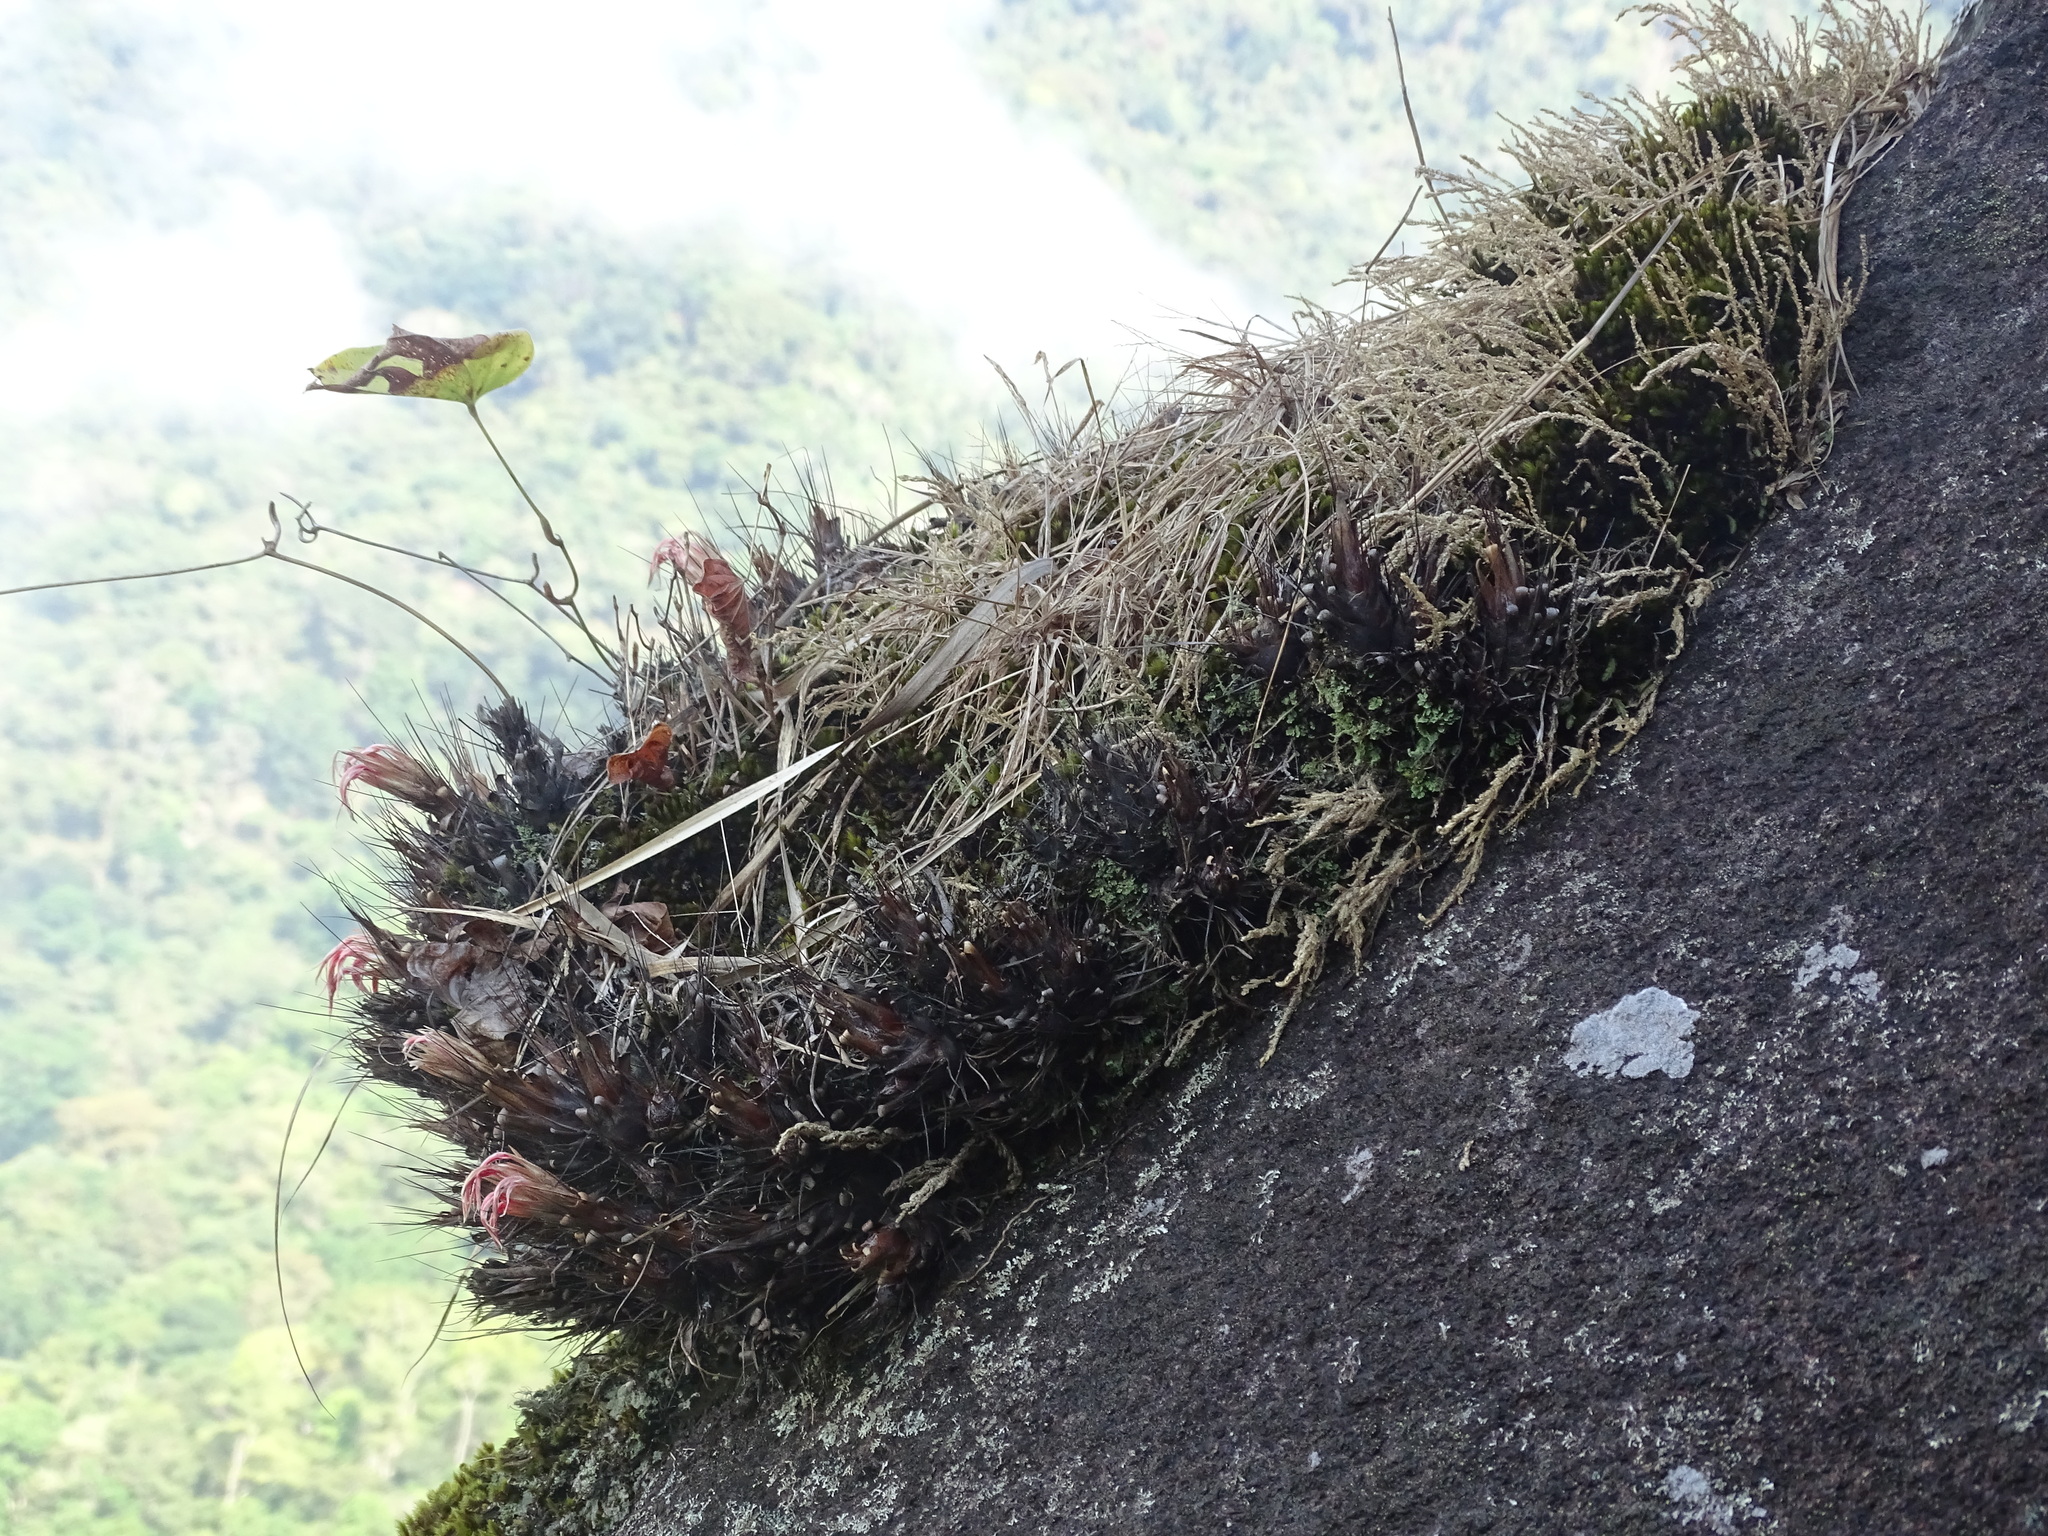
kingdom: Plantae
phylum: Tracheophyta
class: Liliopsida
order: Poales
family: Bromeliaceae
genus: Pitcairnia
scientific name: Pitcairnia heterophylla
